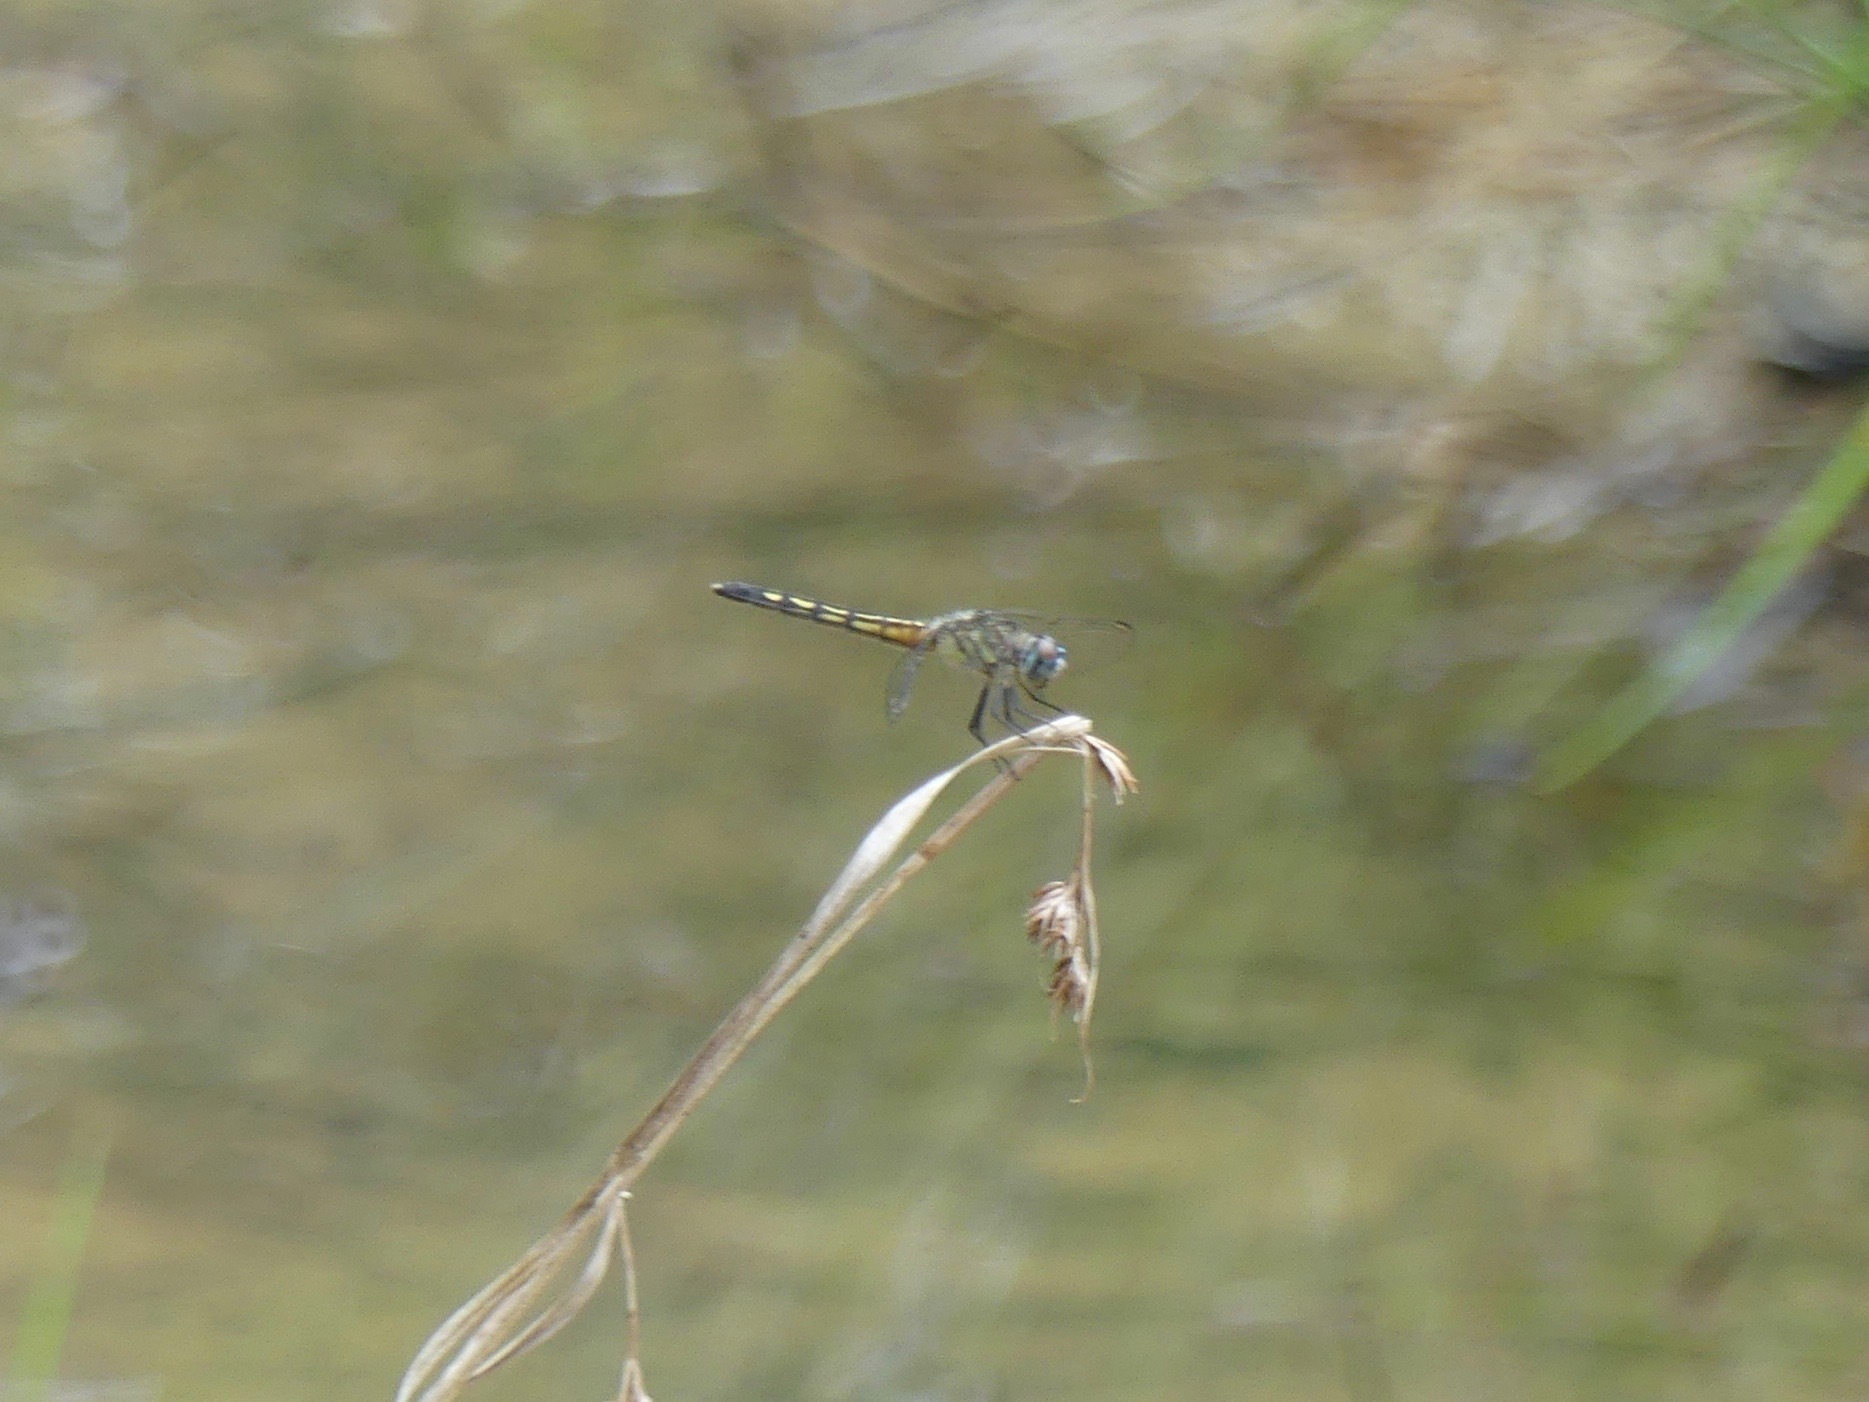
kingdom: Animalia
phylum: Arthropoda
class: Insecta
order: Odonata
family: Libellulidae
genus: Pachydiplax
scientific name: Pachydiplax longipennis
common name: Blue dasher
